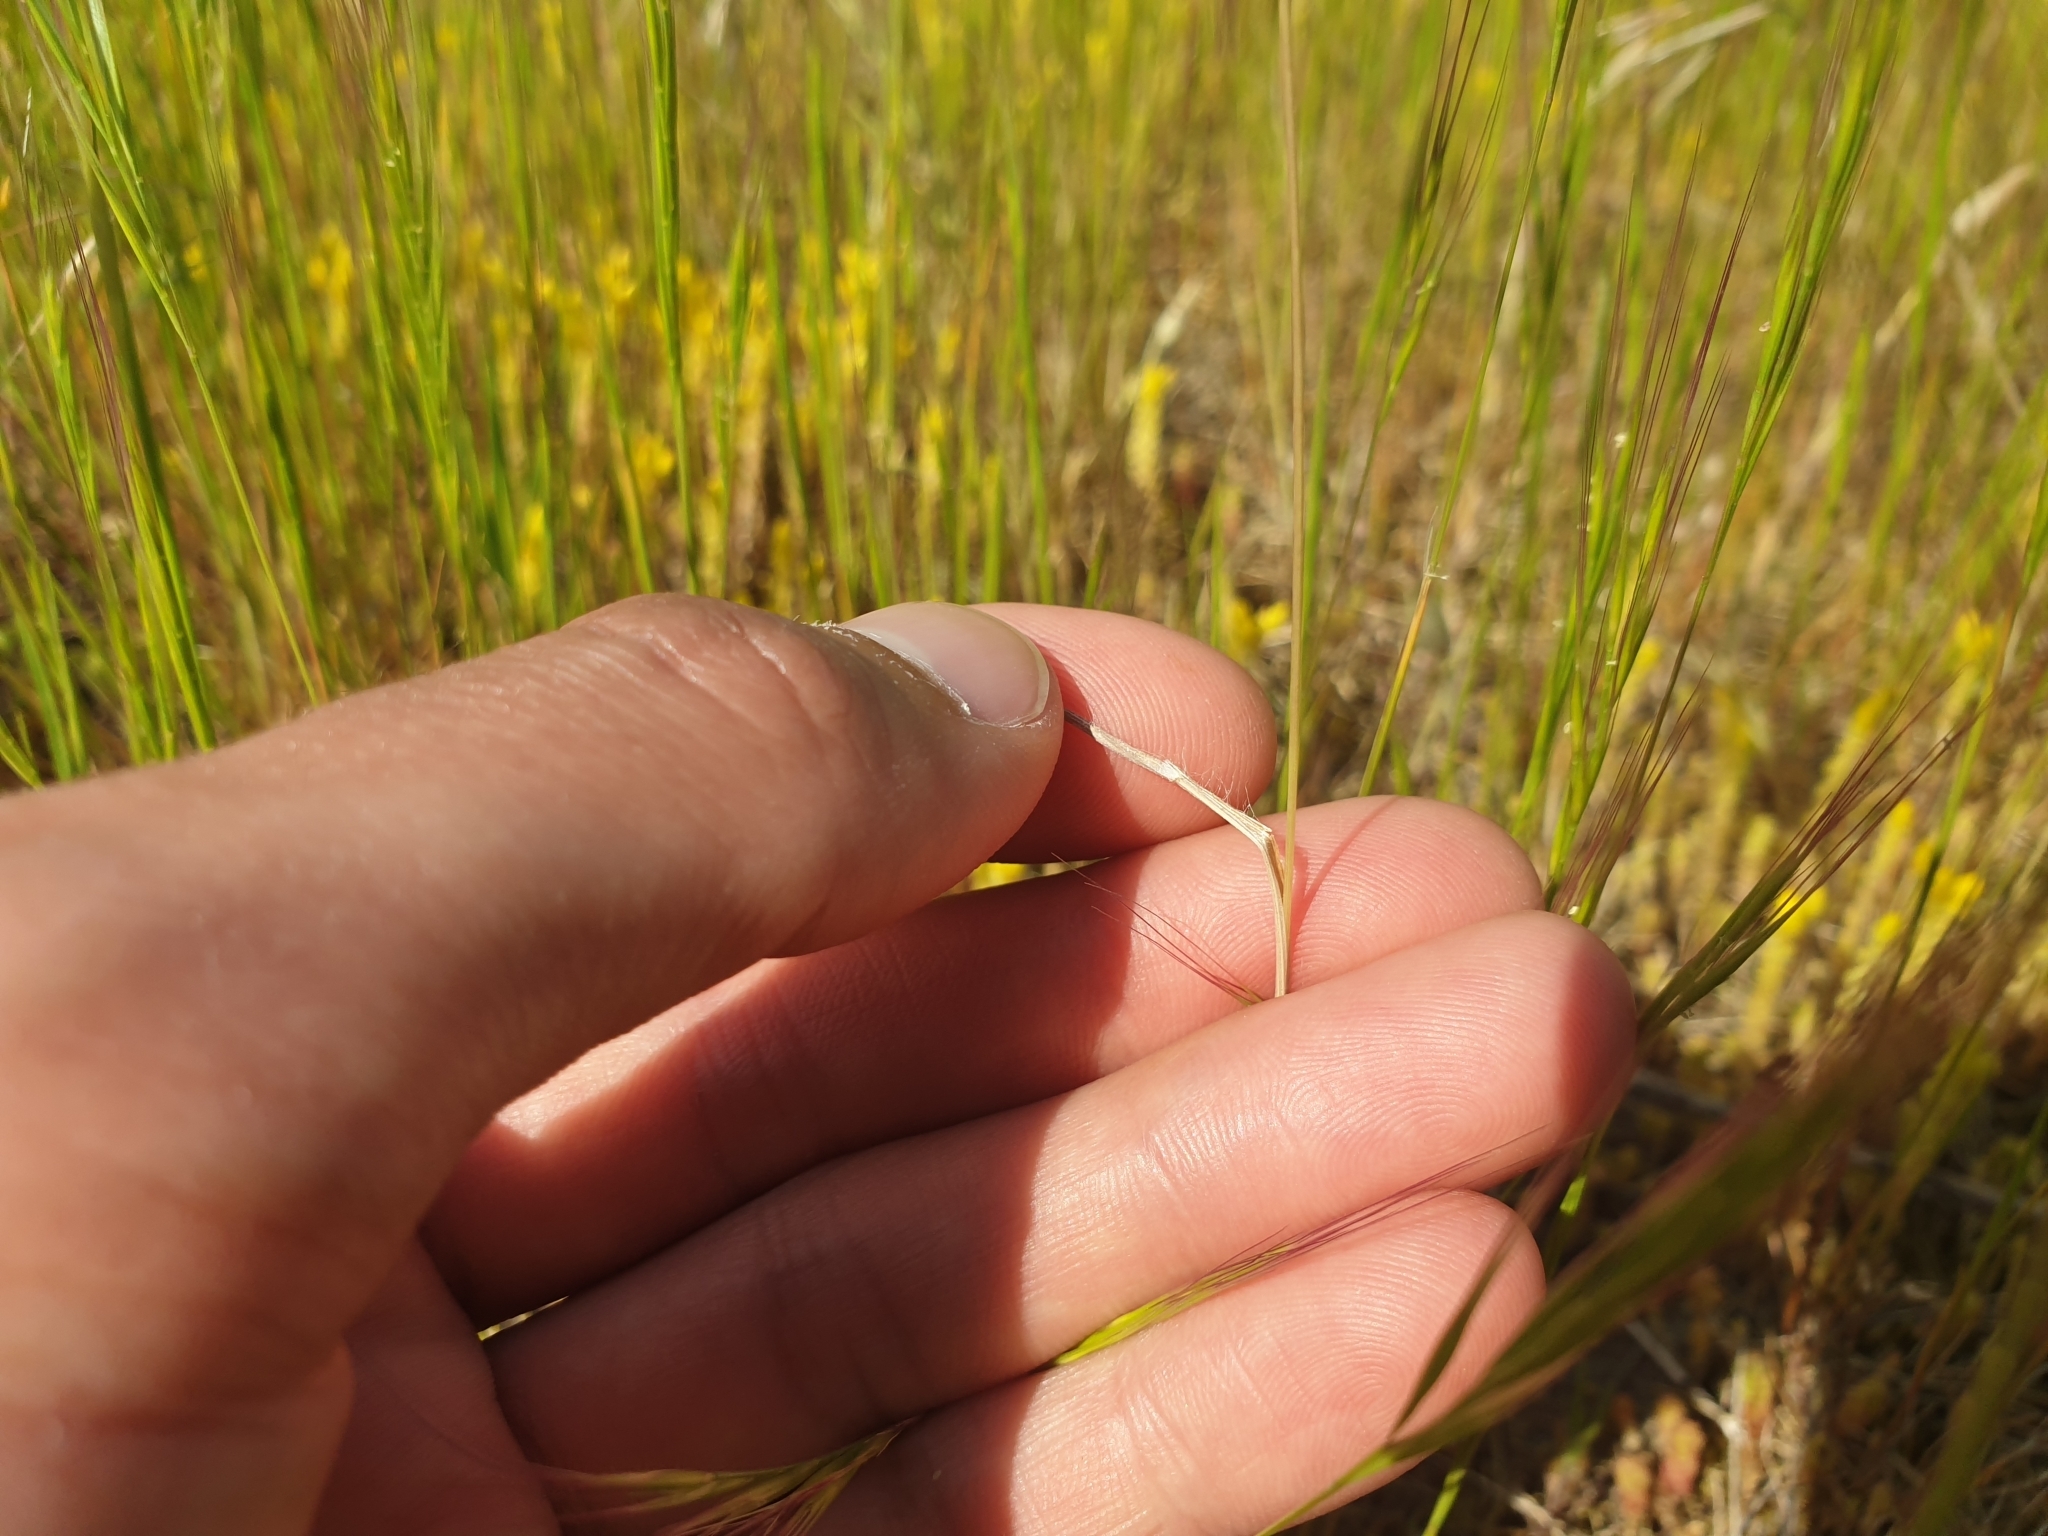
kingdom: Plantae
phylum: Tracheophyta
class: Liliopsida
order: Poales
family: Poaceae
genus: Bromus
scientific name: Bromus tectorum
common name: Cheatgrass
